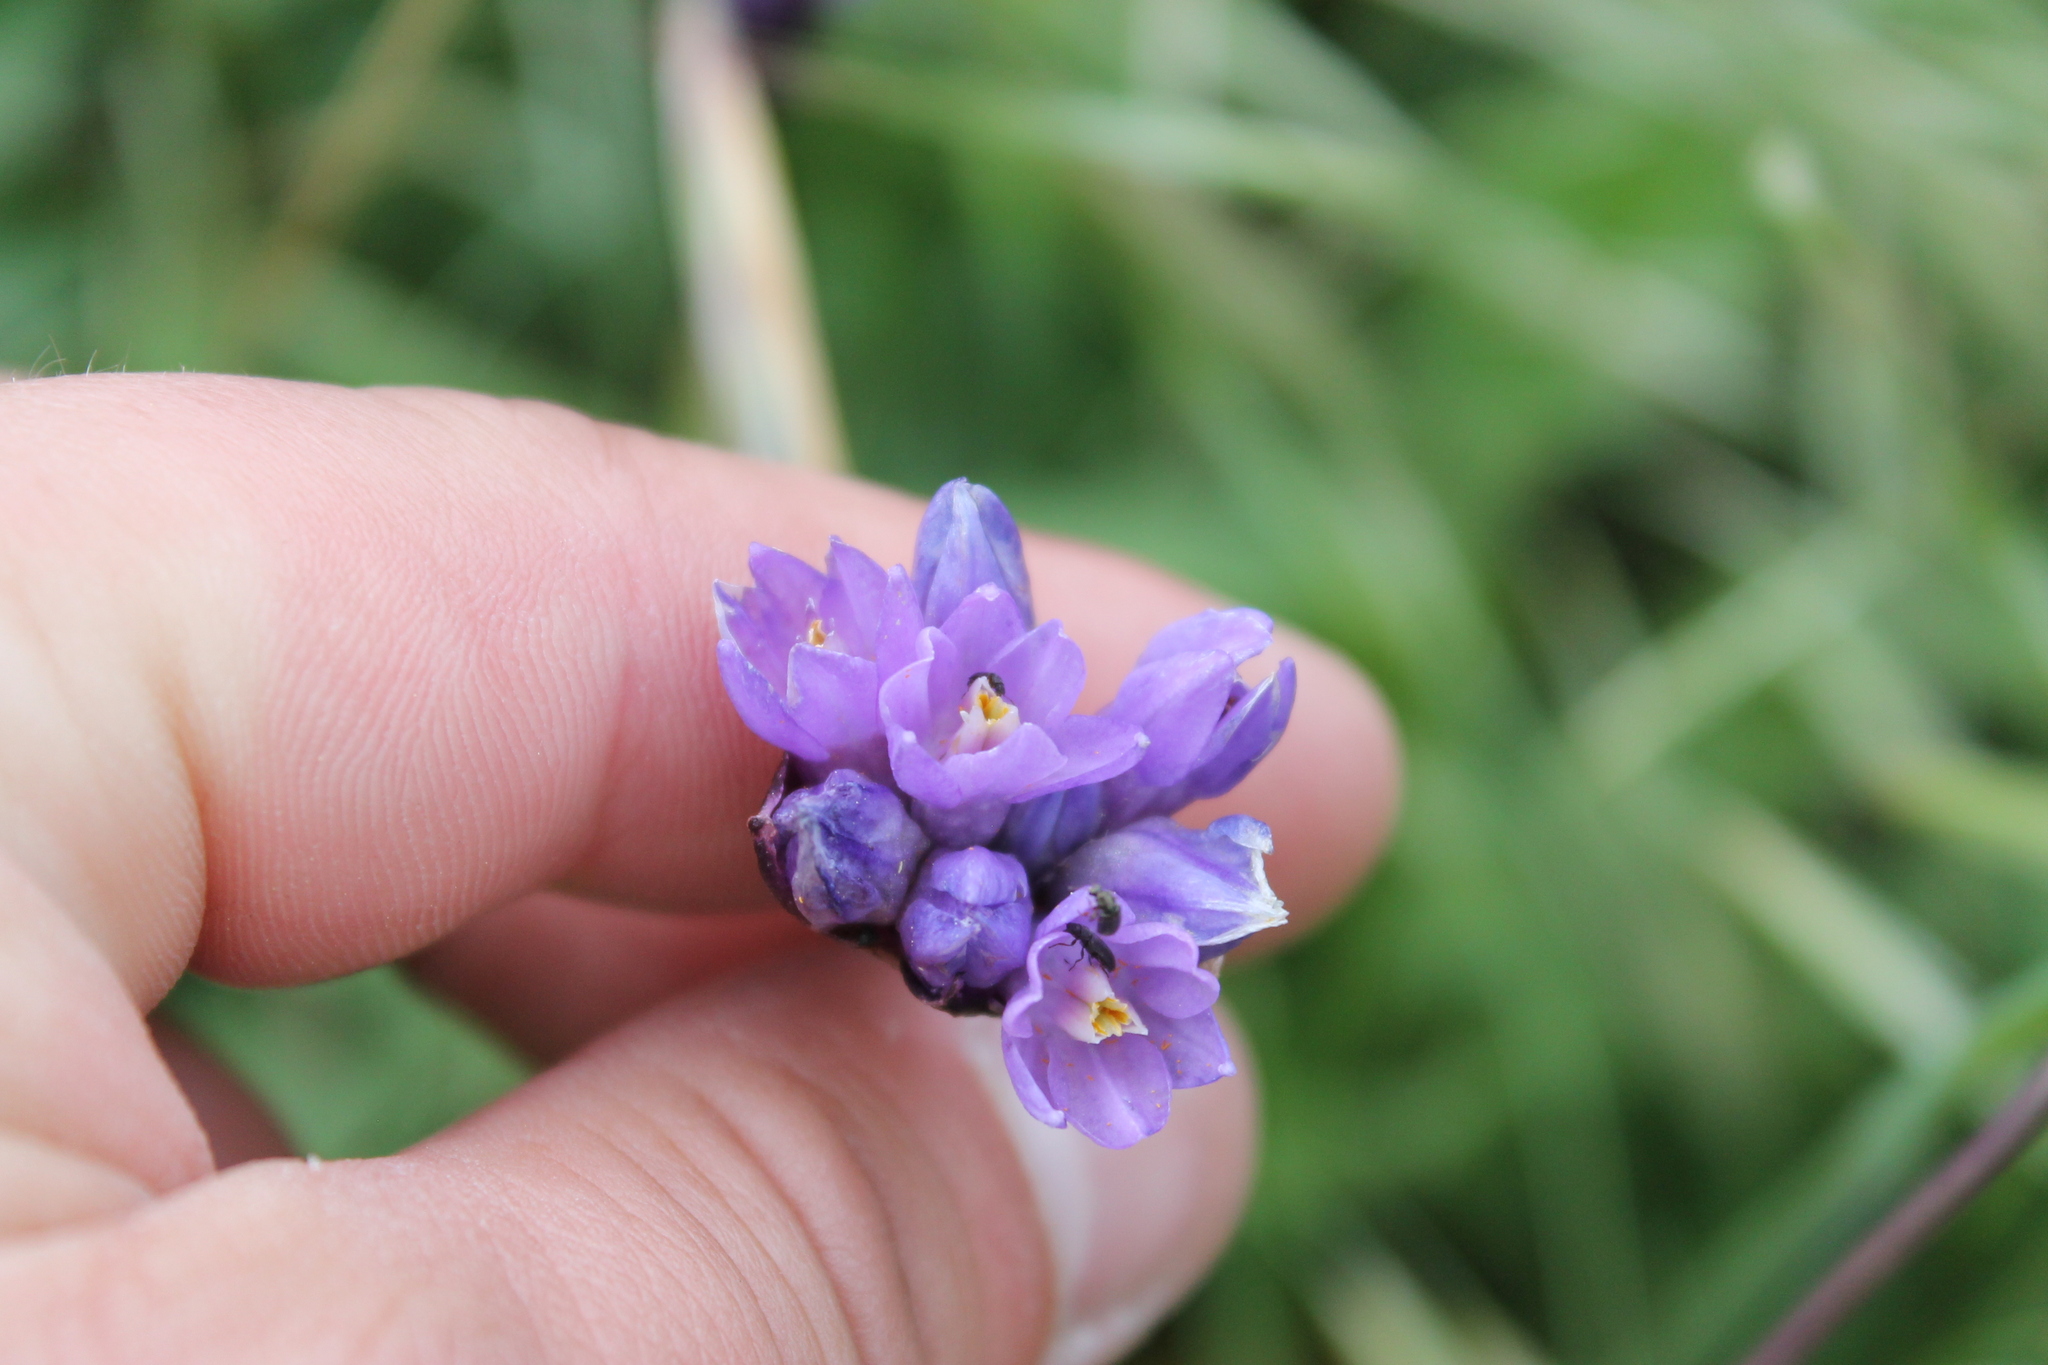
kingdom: Plantae
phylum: Tracheophyta
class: Liliopsida
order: Asparagales
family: Asparagaceae
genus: Dipterostemon
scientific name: Dipterostemon capitatus
